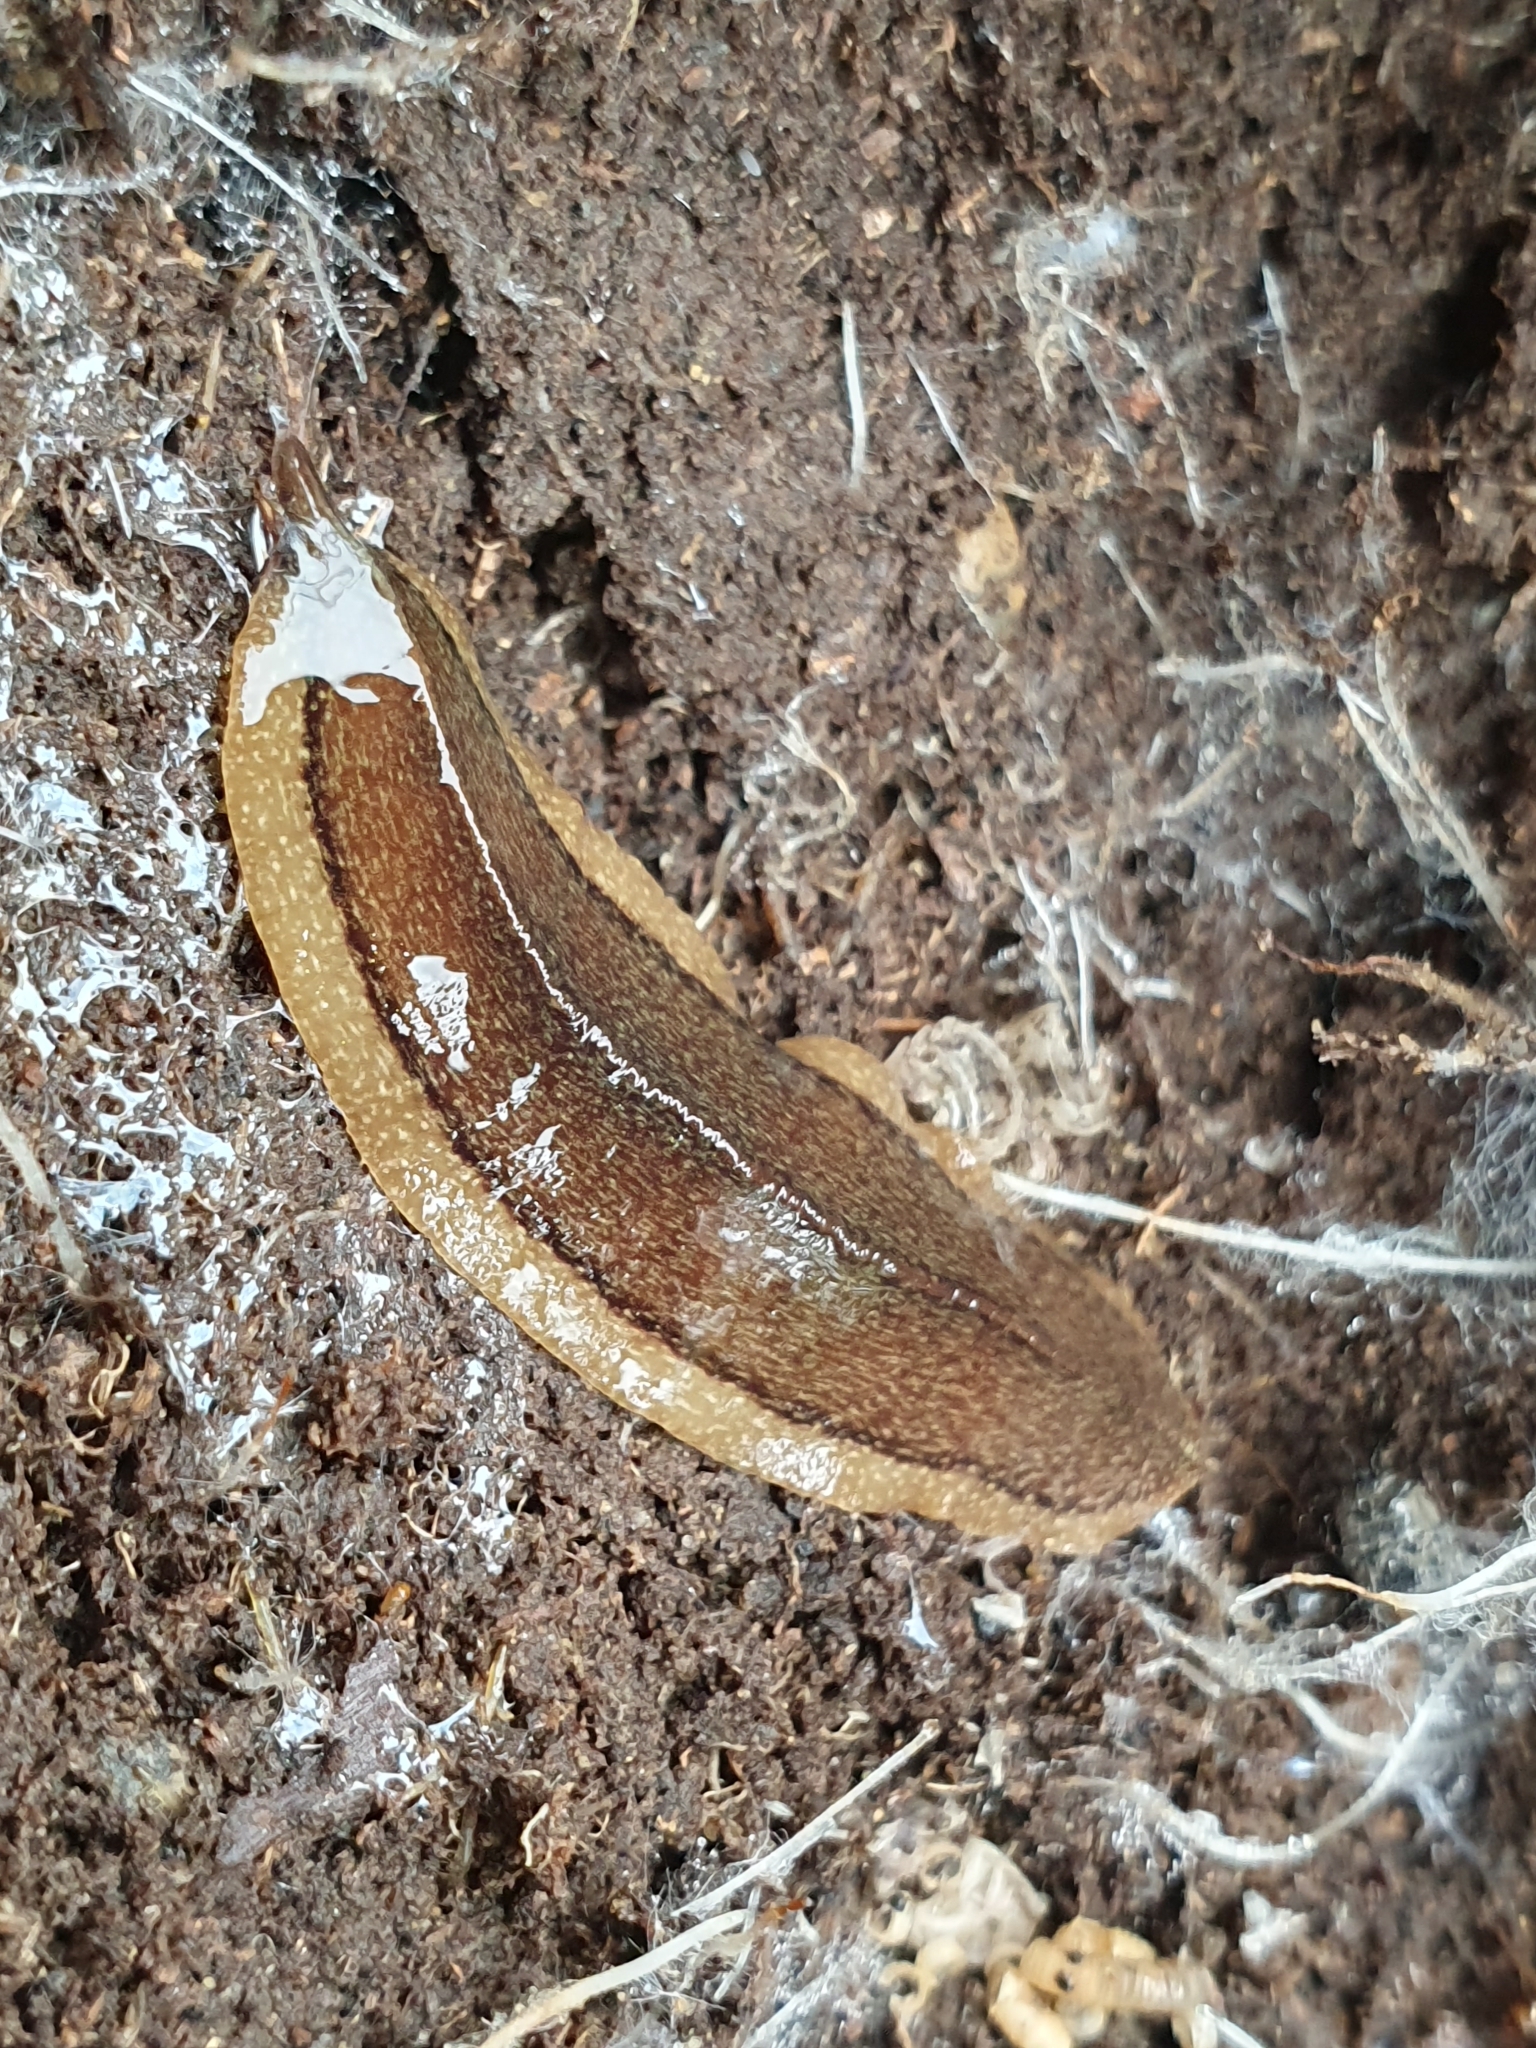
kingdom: Animalia
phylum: Platyhelminthes
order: Tricladida
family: Geoplanidae
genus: Newzealandia
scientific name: Newzealandia graffii
